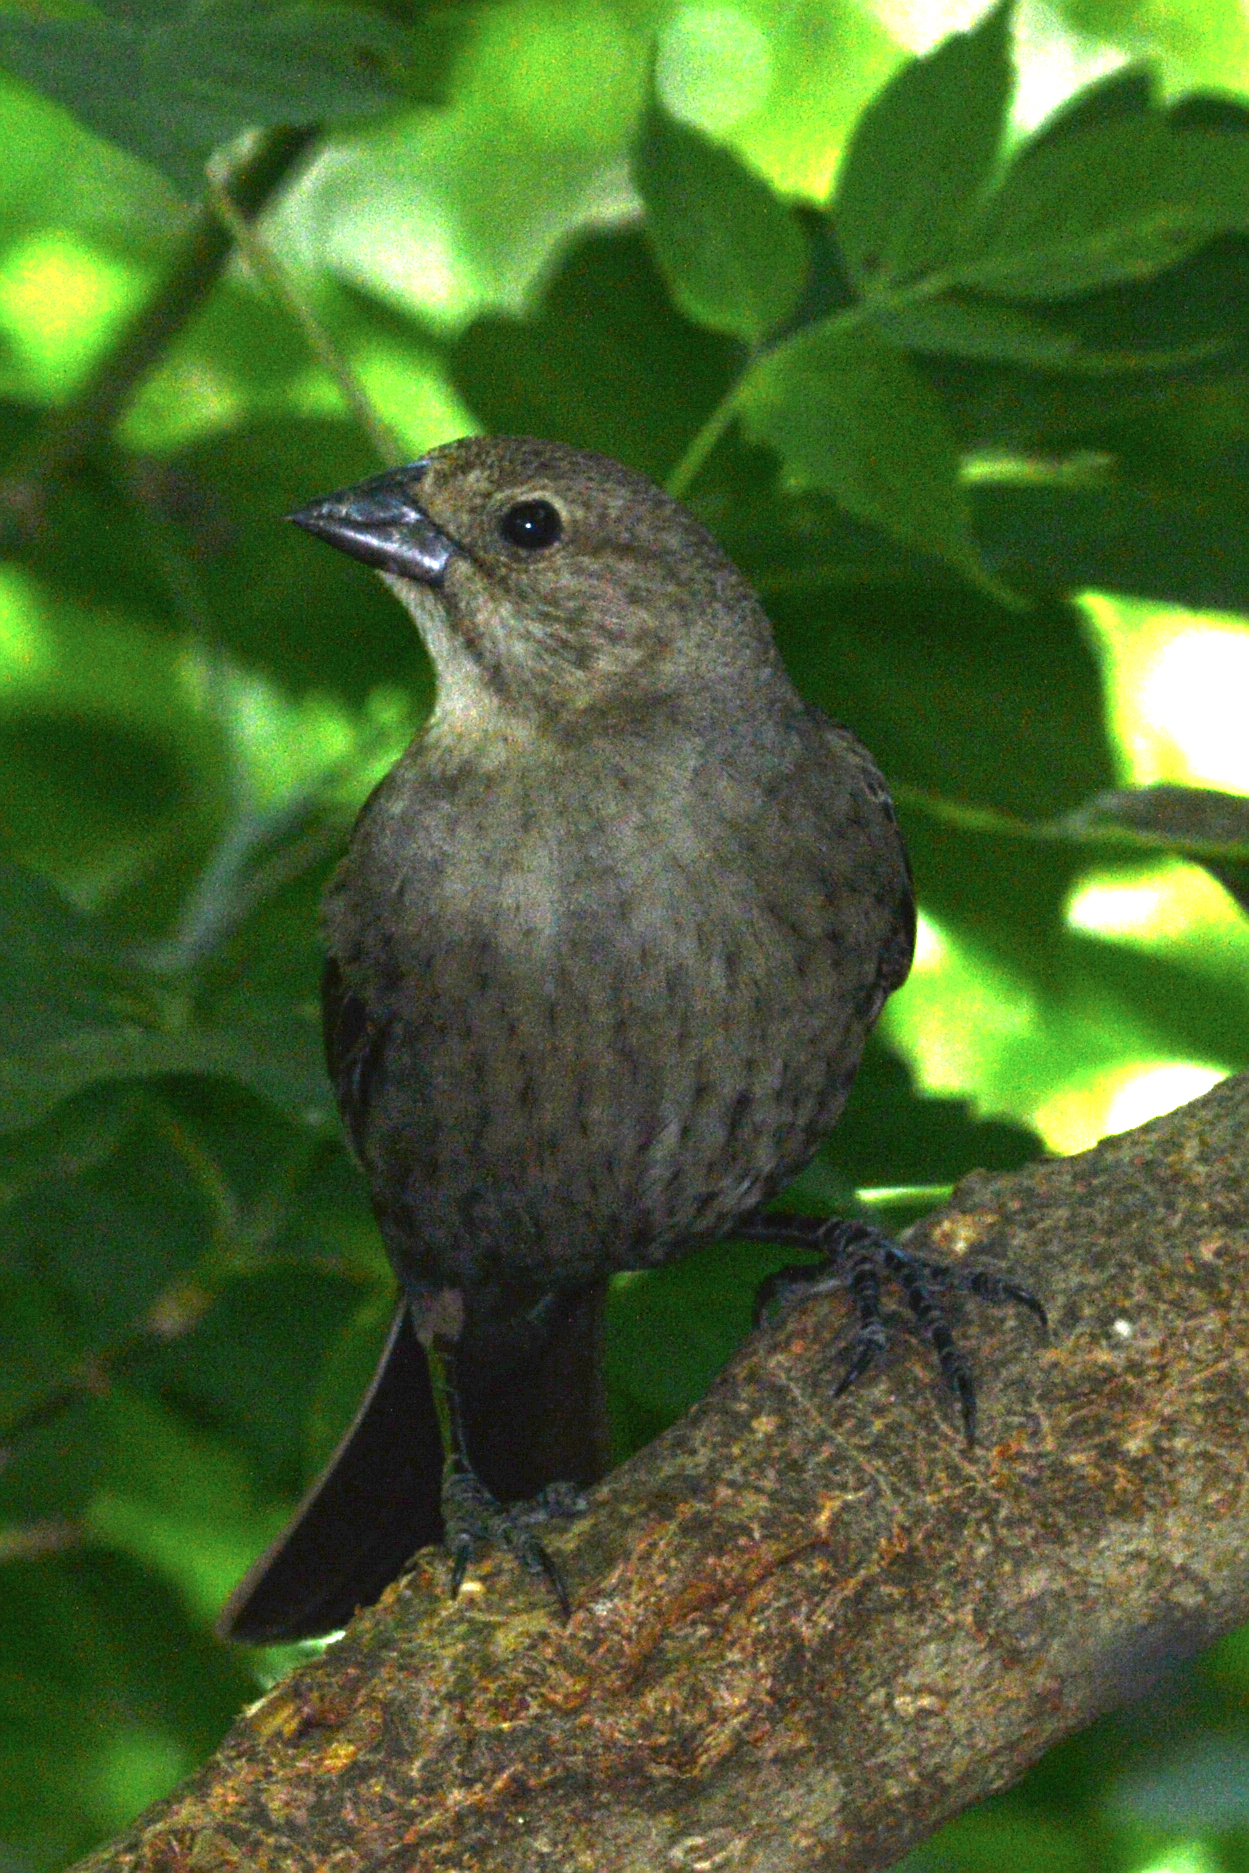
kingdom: Animalia
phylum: Chordata
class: Aves
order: Passeriformes
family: Icteridae
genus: Molothrus
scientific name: Molothrus ater
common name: Brown-headed cowbird
